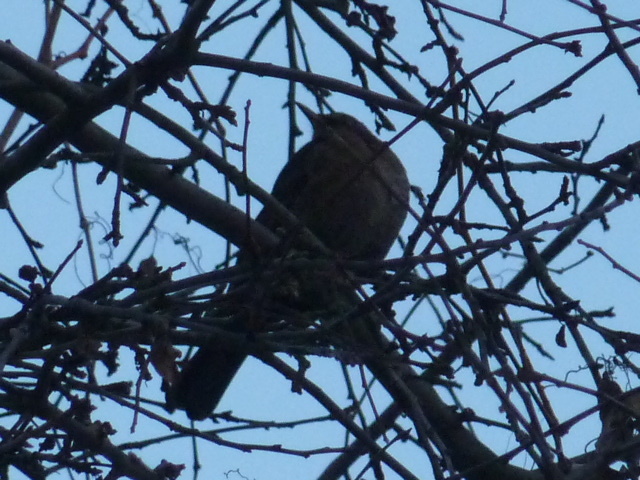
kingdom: Animalia
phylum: Chordata
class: Aves
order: Passeriformes
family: Turdidae
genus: Turdus
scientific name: Turdus merula
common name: Common blackbird
